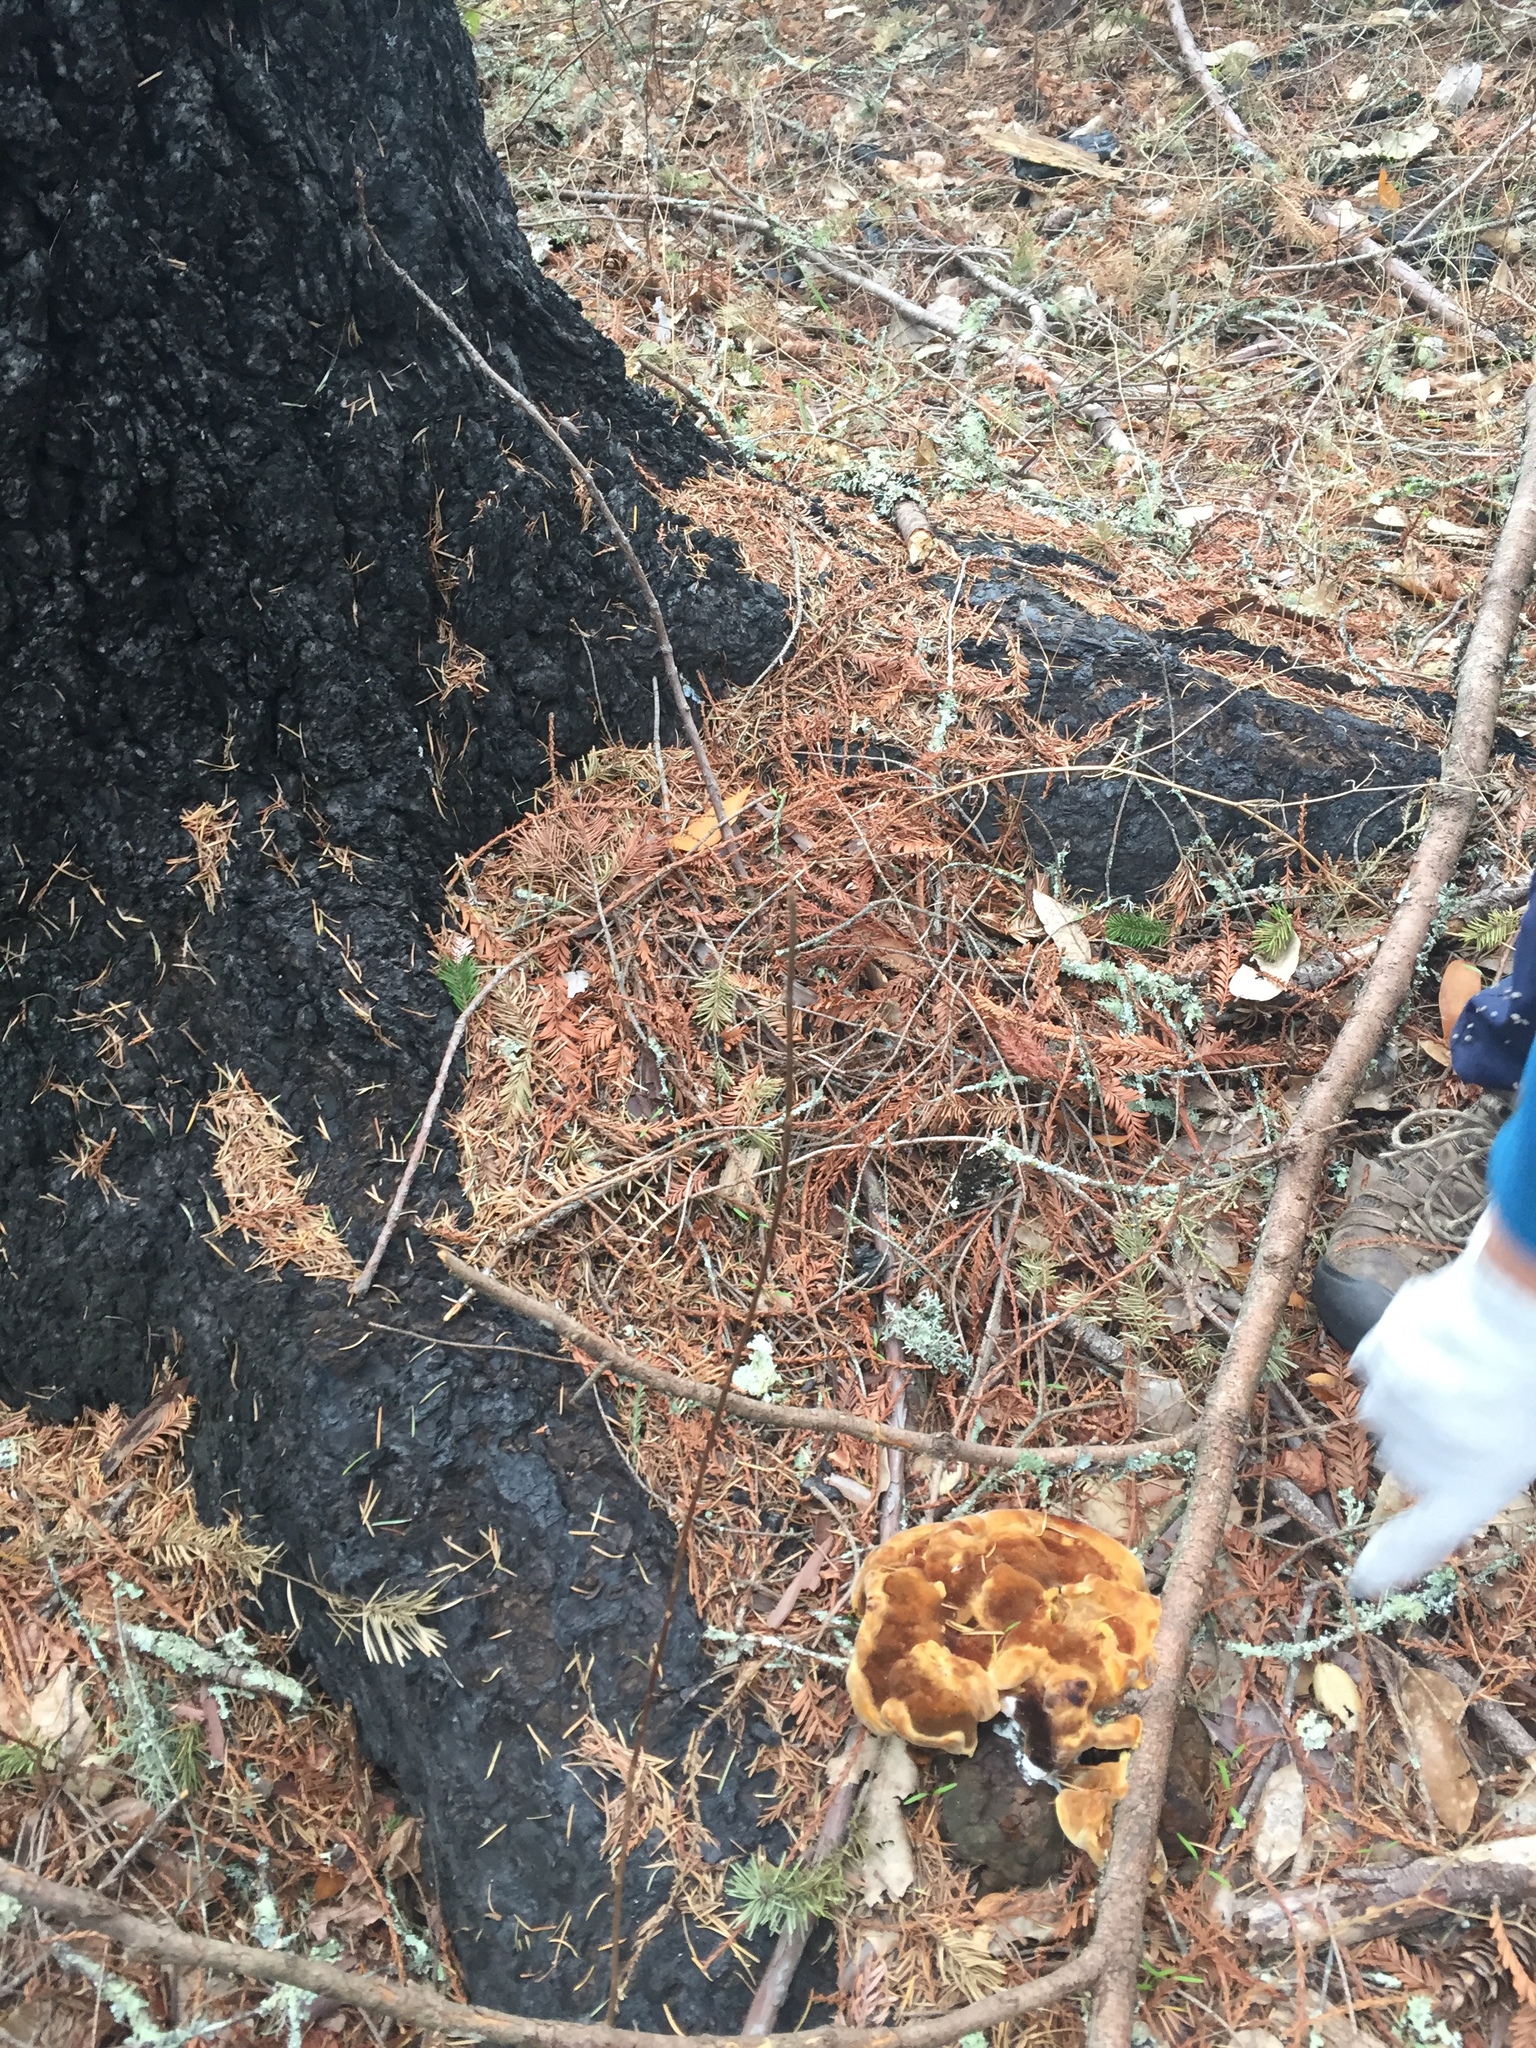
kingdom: Fungi
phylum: Basidiomycota
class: Agaricomycetes
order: Polyporales
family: Laetiporaceae
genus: Phaeolus
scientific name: Phaeolus schweinitzii
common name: Dyer's mazegill
